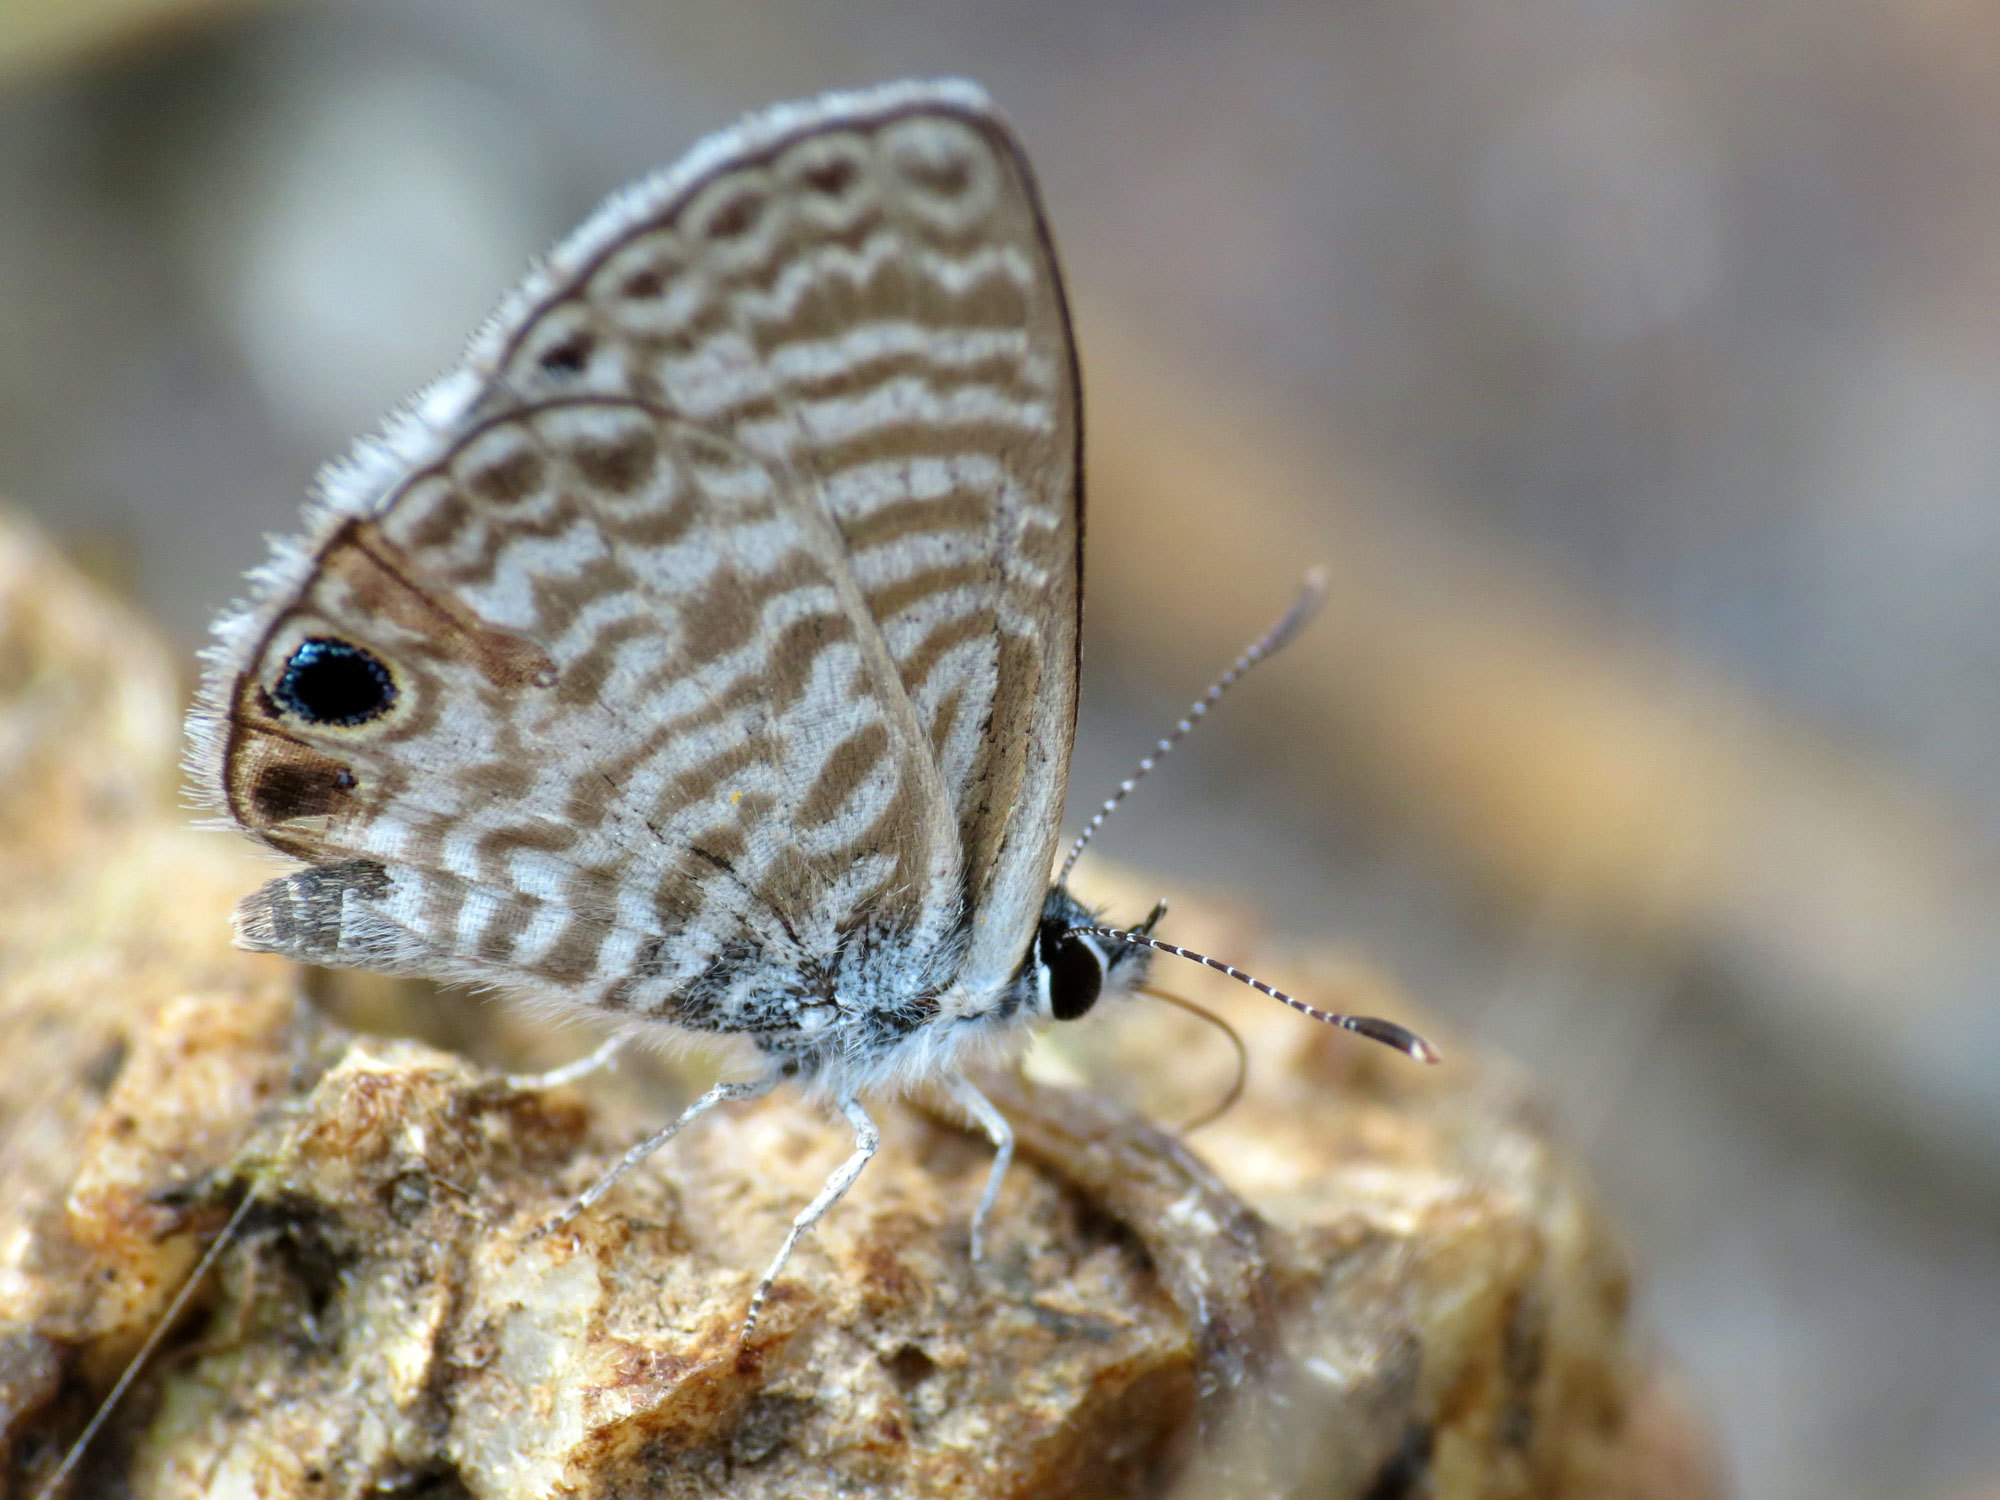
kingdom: Animalia
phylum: Arthropoda
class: Insecta
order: Lepidoptera
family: Lycaenidae
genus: Leptotes
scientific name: Leptotes marina
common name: Marine blue
